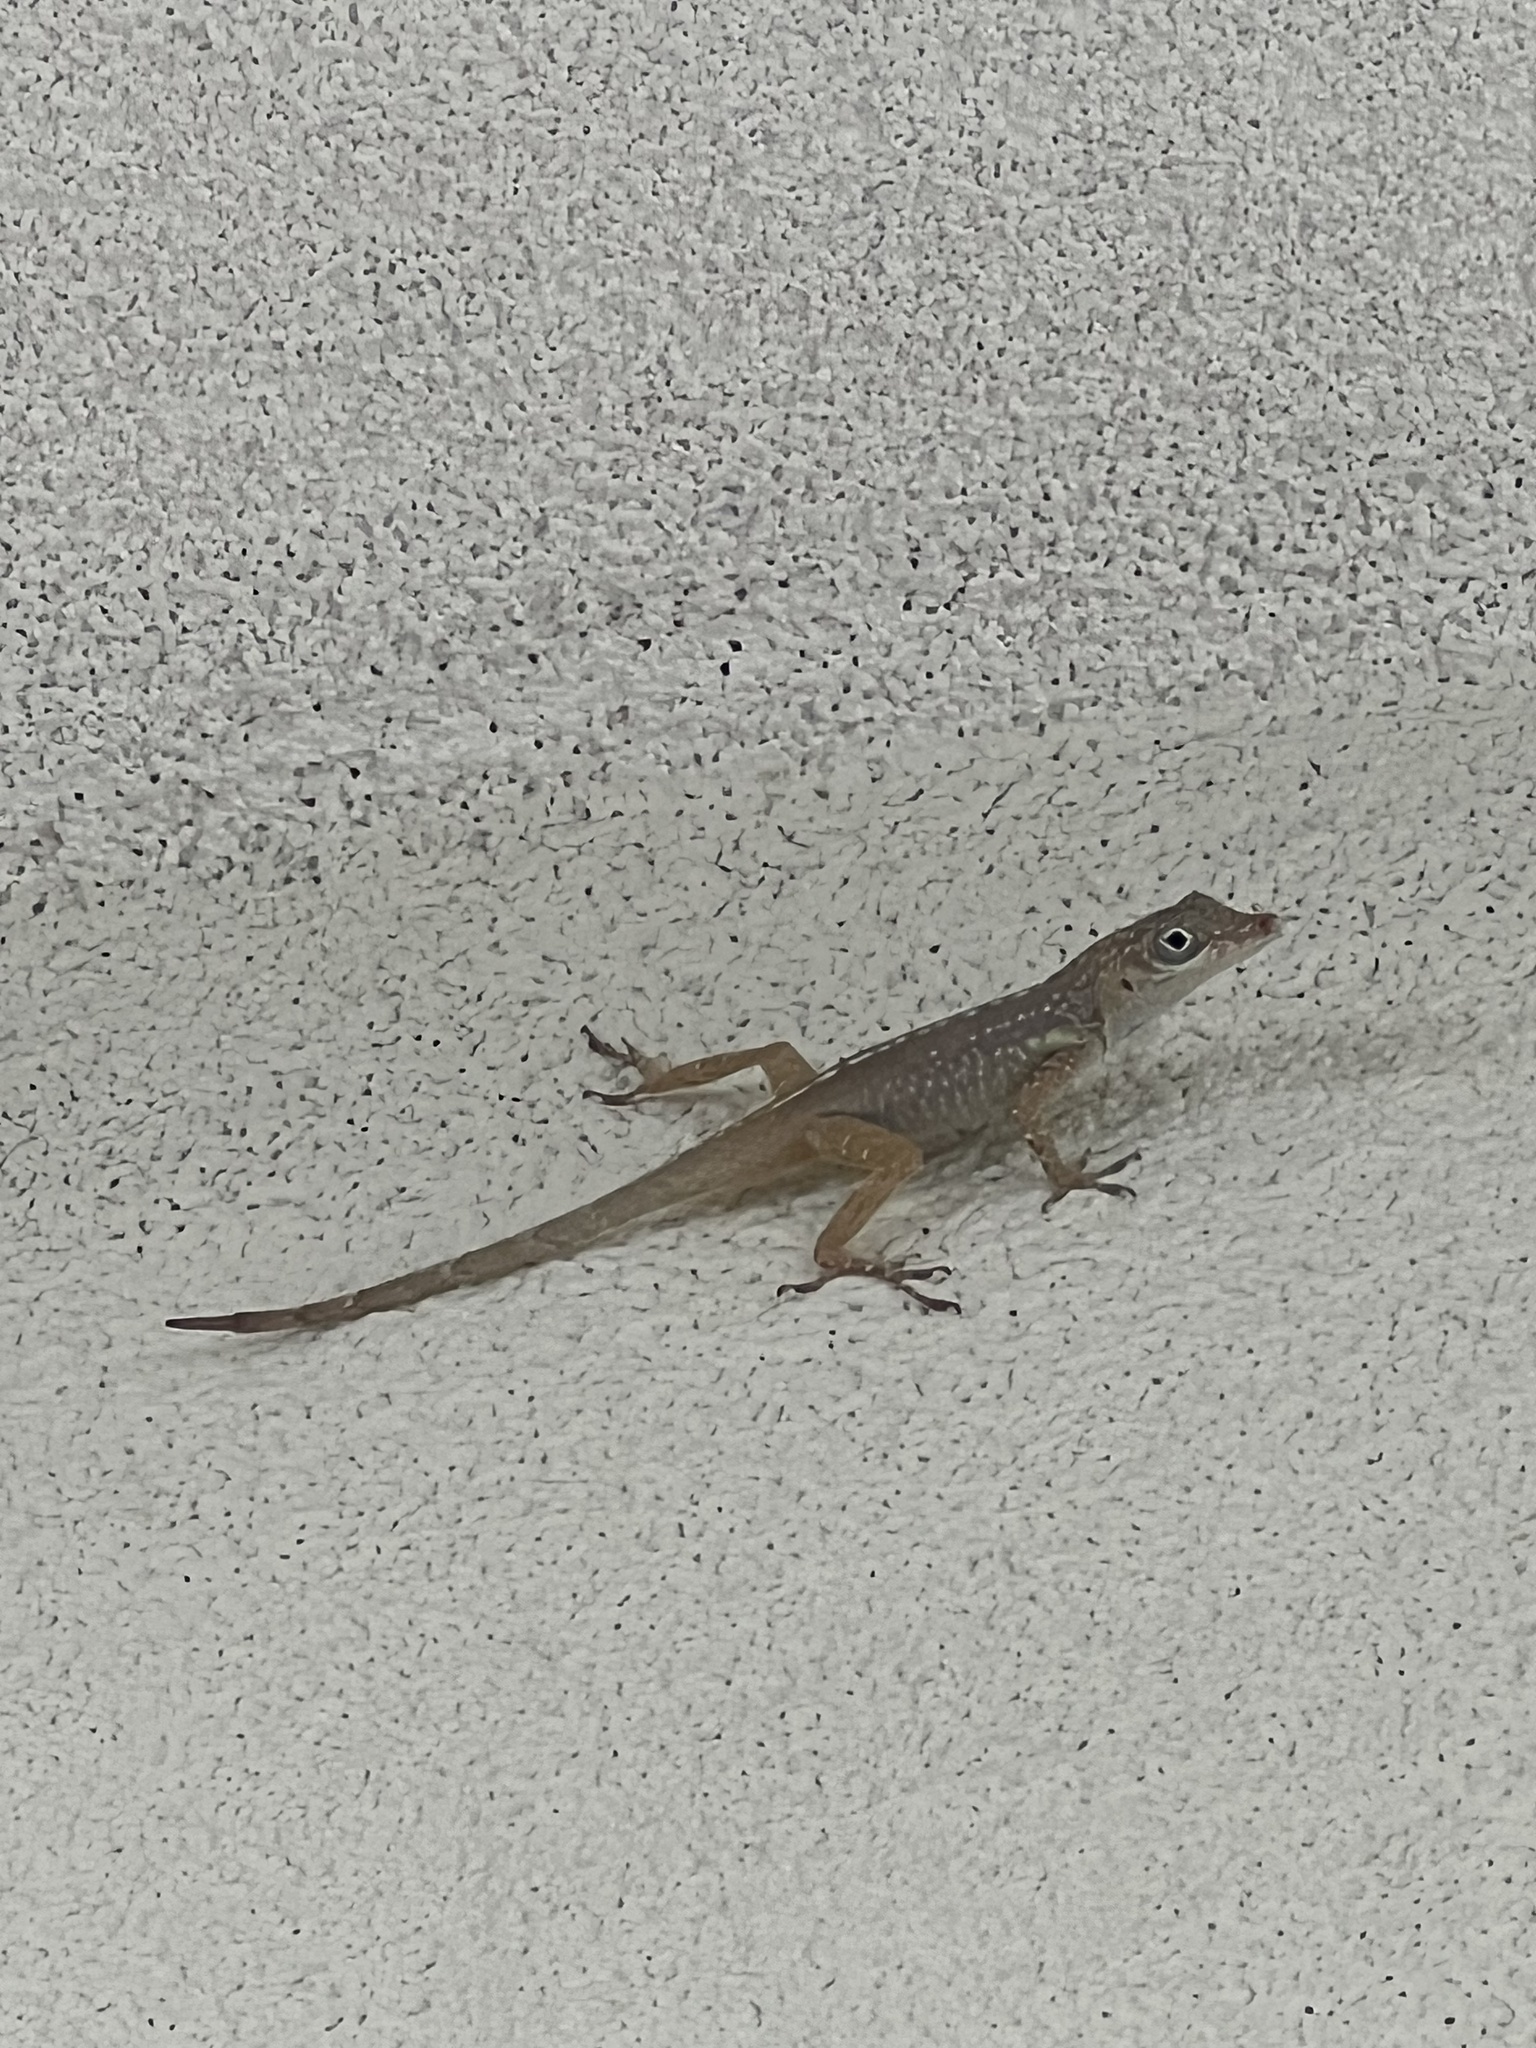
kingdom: Animalia
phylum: Chordata
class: Squamata
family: Dactyloidae
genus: Anolis
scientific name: Anolis conspersus
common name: Grand cayman anole
